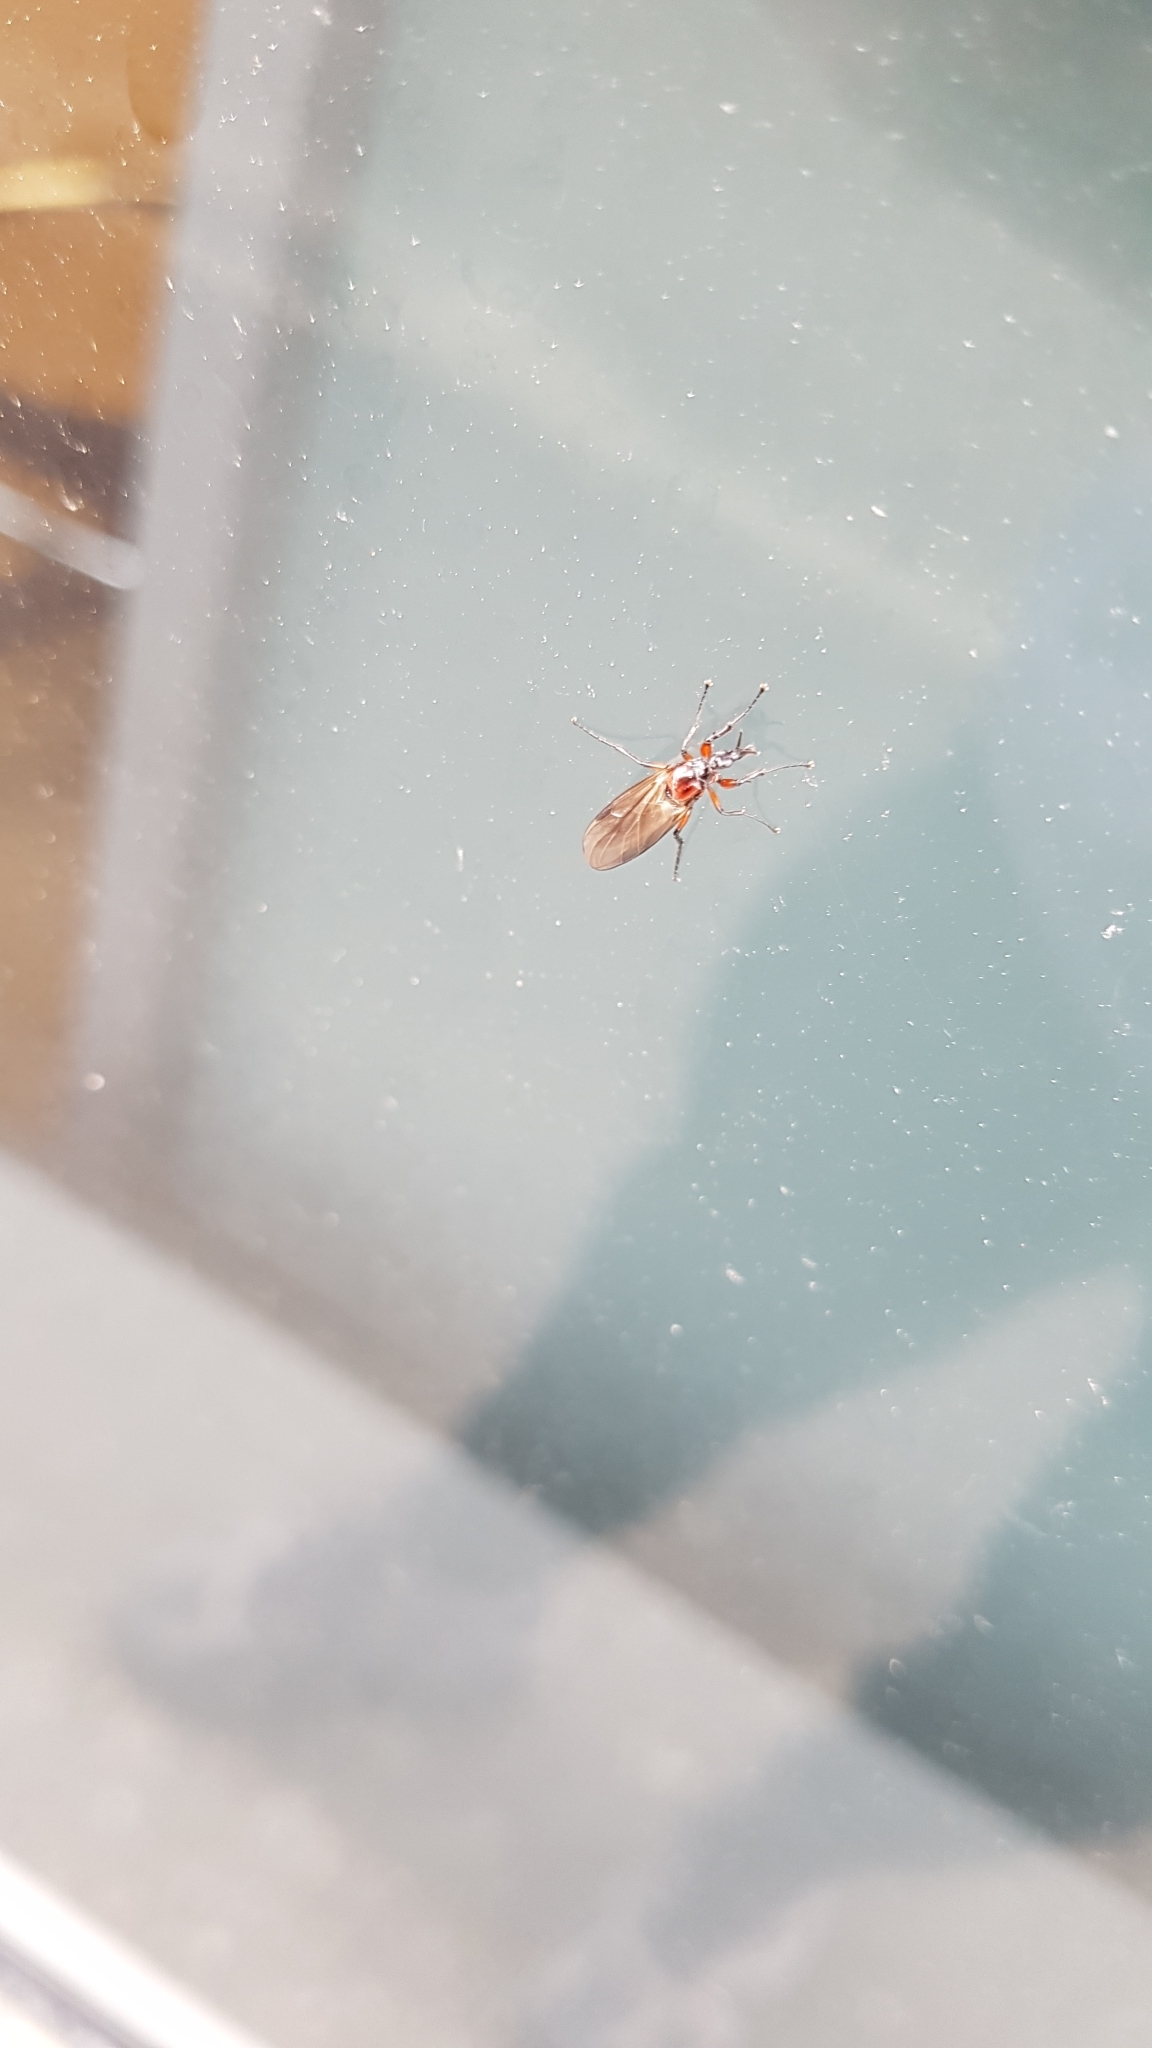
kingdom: Animalia
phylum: Arthropoda
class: Insecta
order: Diptera
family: Bibionidae
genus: Dilophus
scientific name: Dilophus nigrostigma
